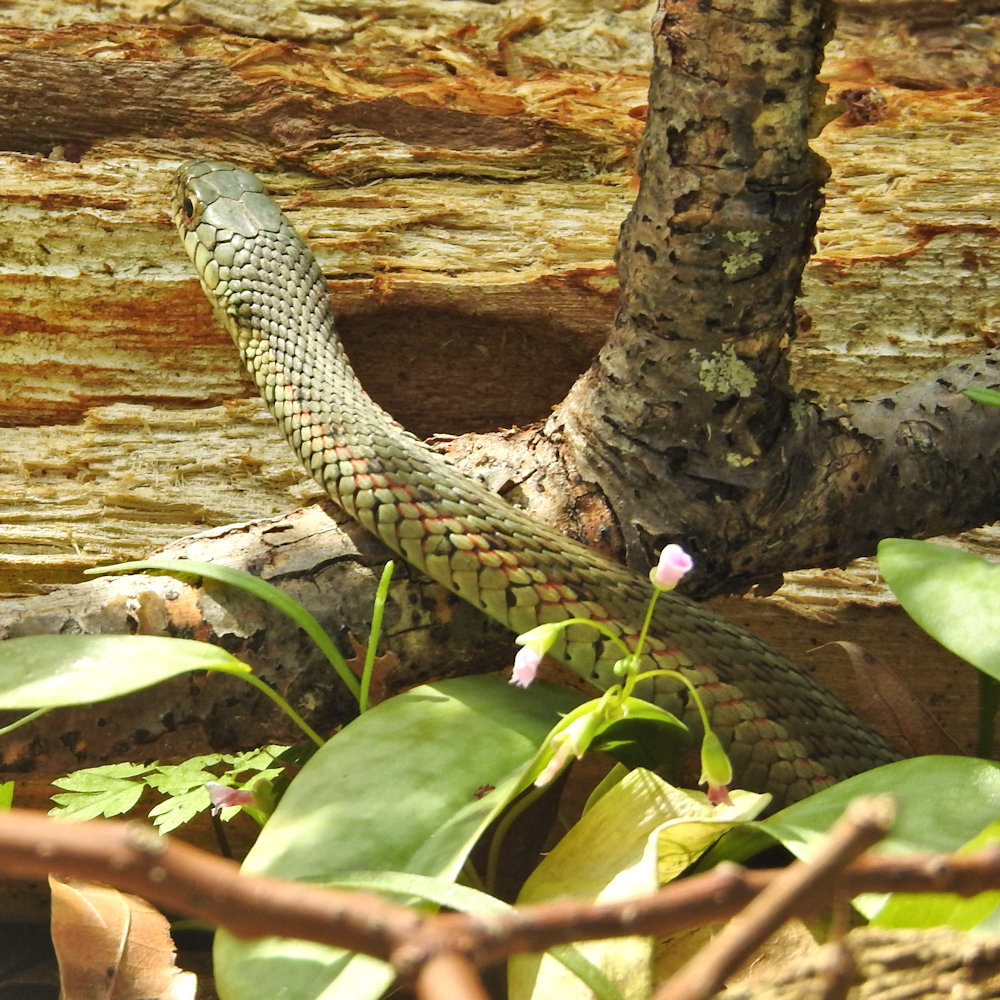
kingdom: Animalia
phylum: Chordata
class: Squamata
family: Colubridae
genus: Thamnophis
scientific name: Thamnophis sirtalis
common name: Common garter snake
